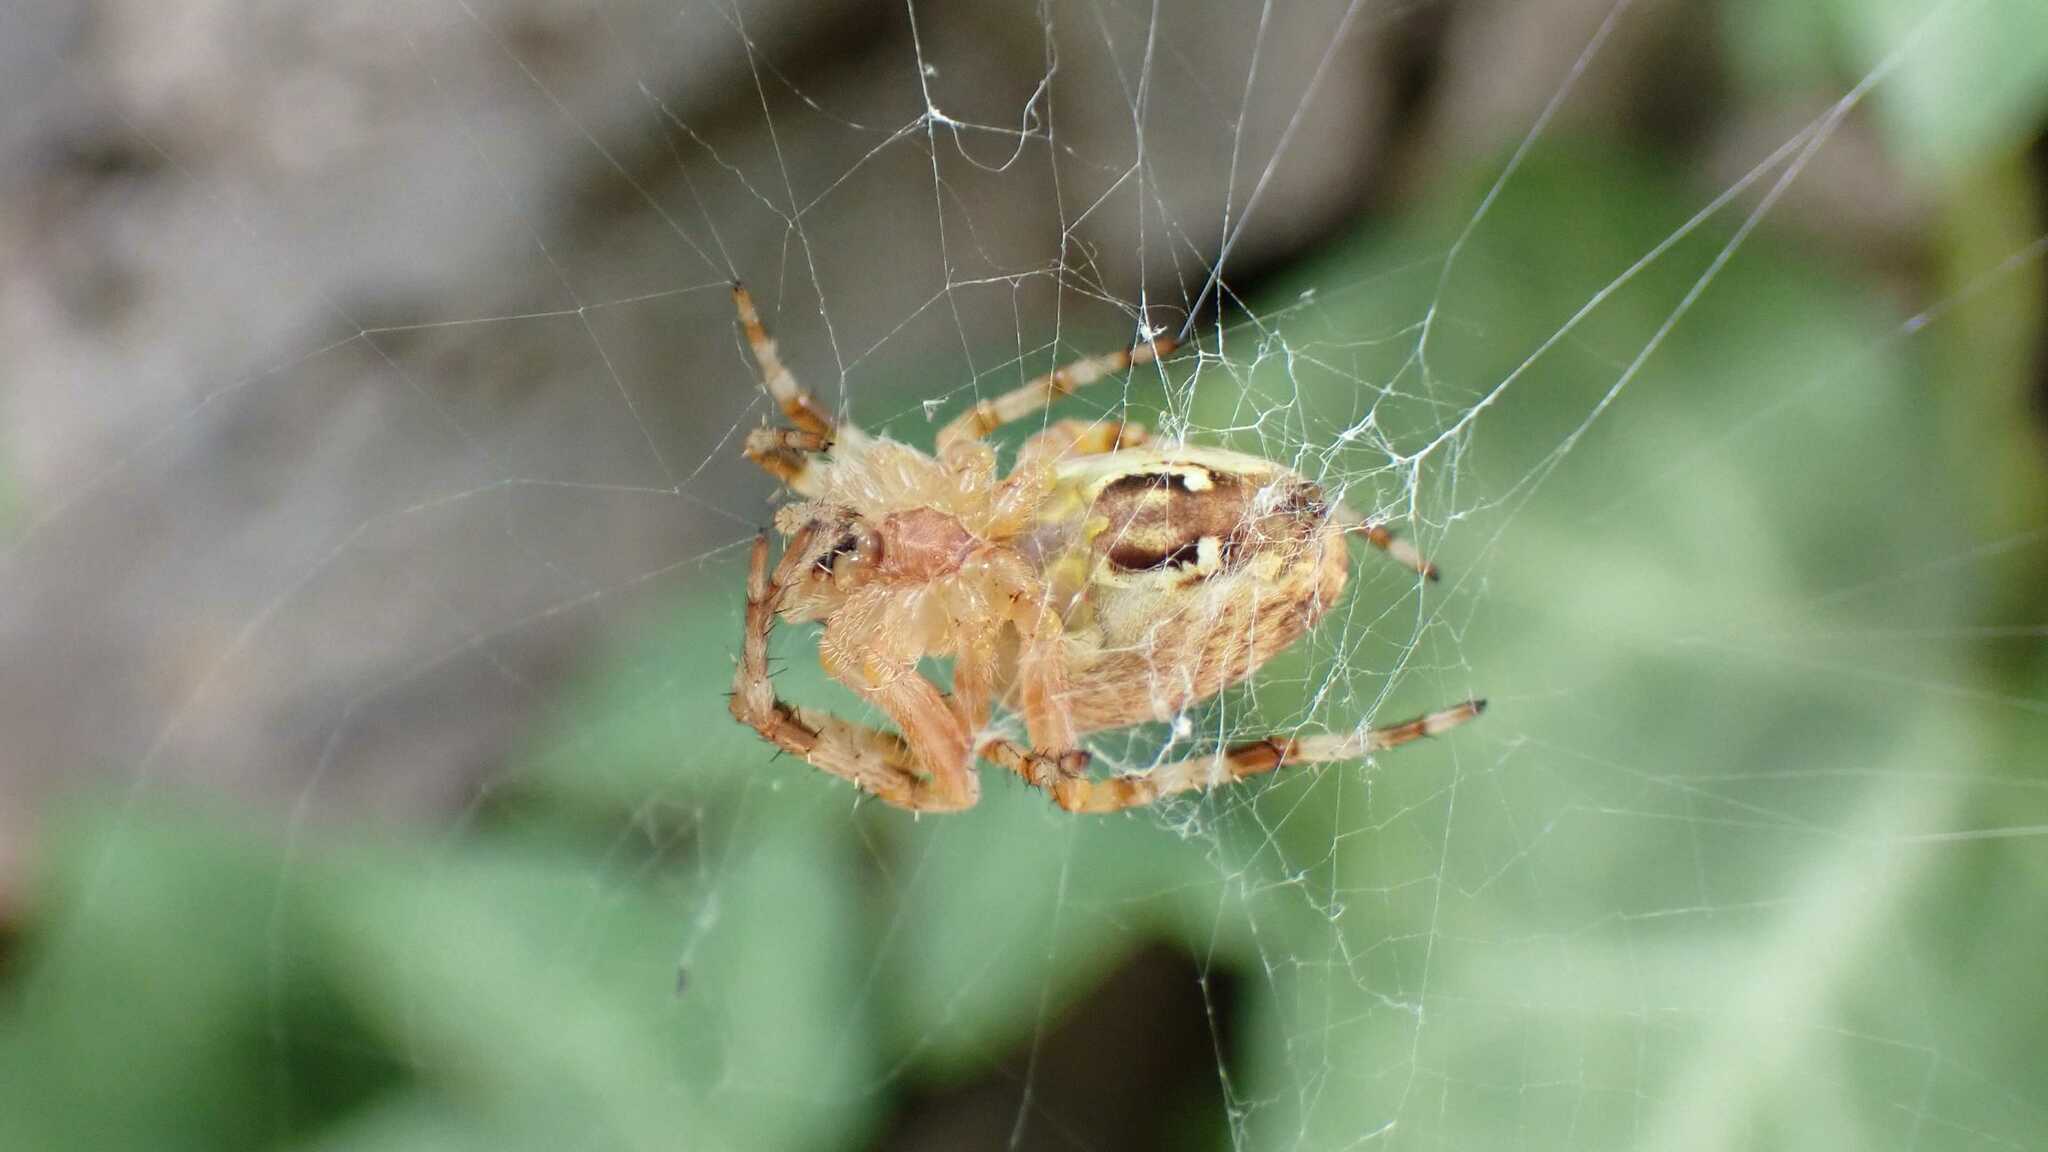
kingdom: Animalia
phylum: Arthropoda
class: Arachnida
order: Araneae
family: Araneidae
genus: Araneus
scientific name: Araneus diadematus
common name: Cross orbweaver
